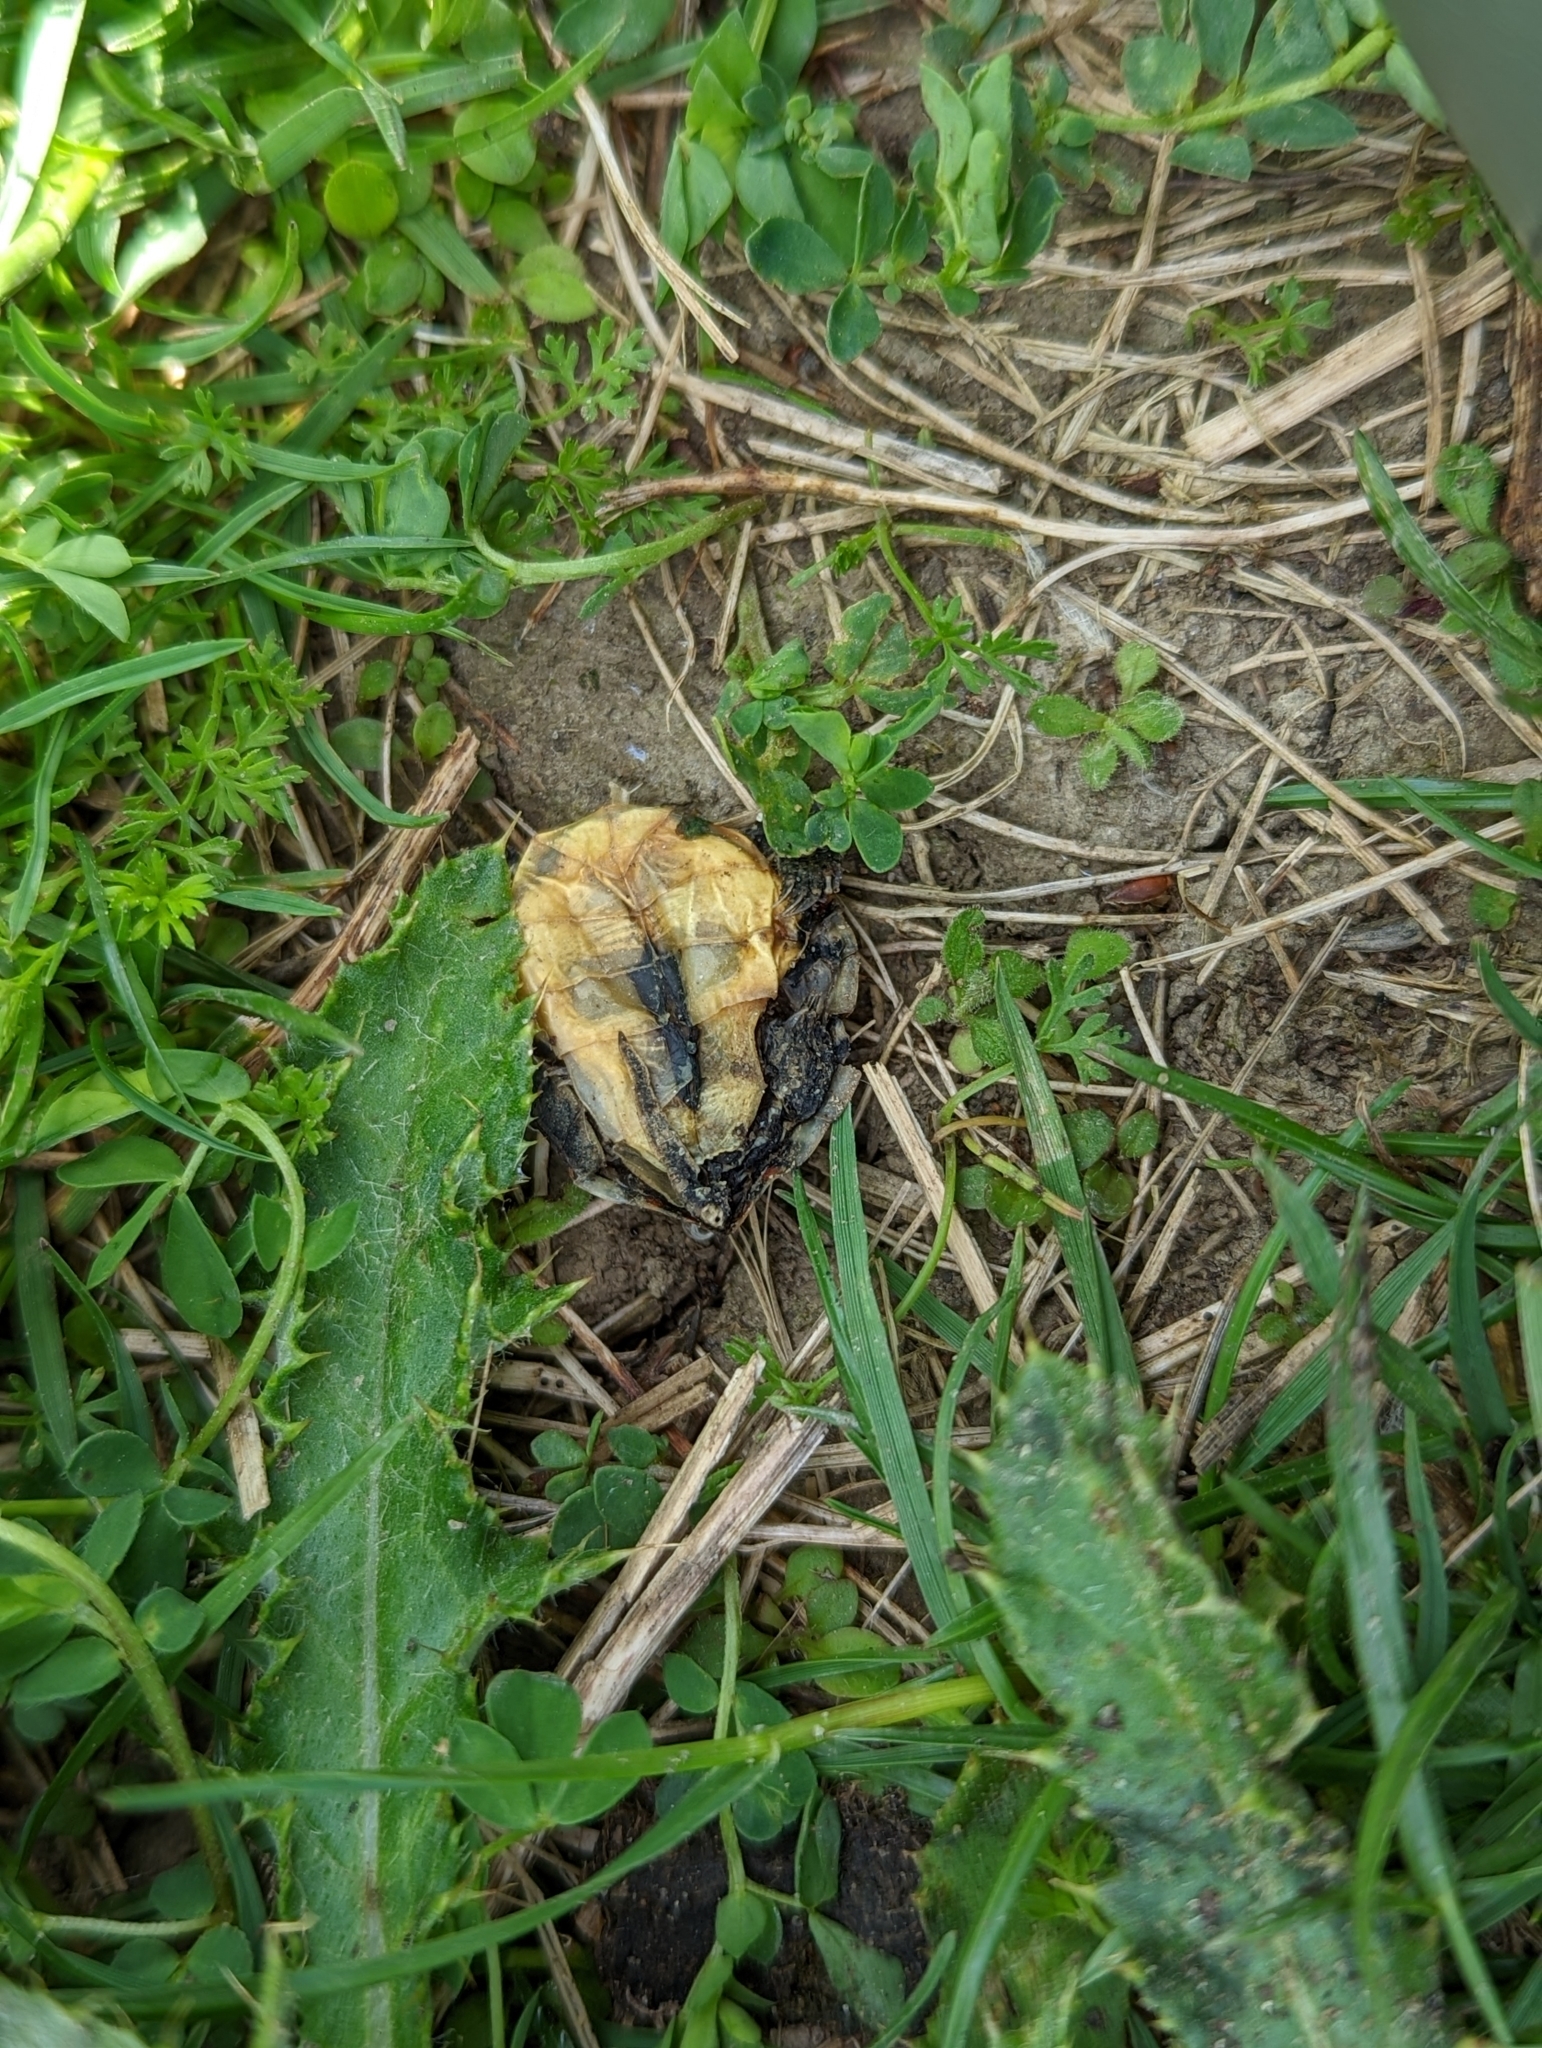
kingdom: Animalia
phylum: Chordata
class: Testudines
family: Emydidae
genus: Chrysemys
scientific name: Chrysemys picta
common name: Painted turtle
